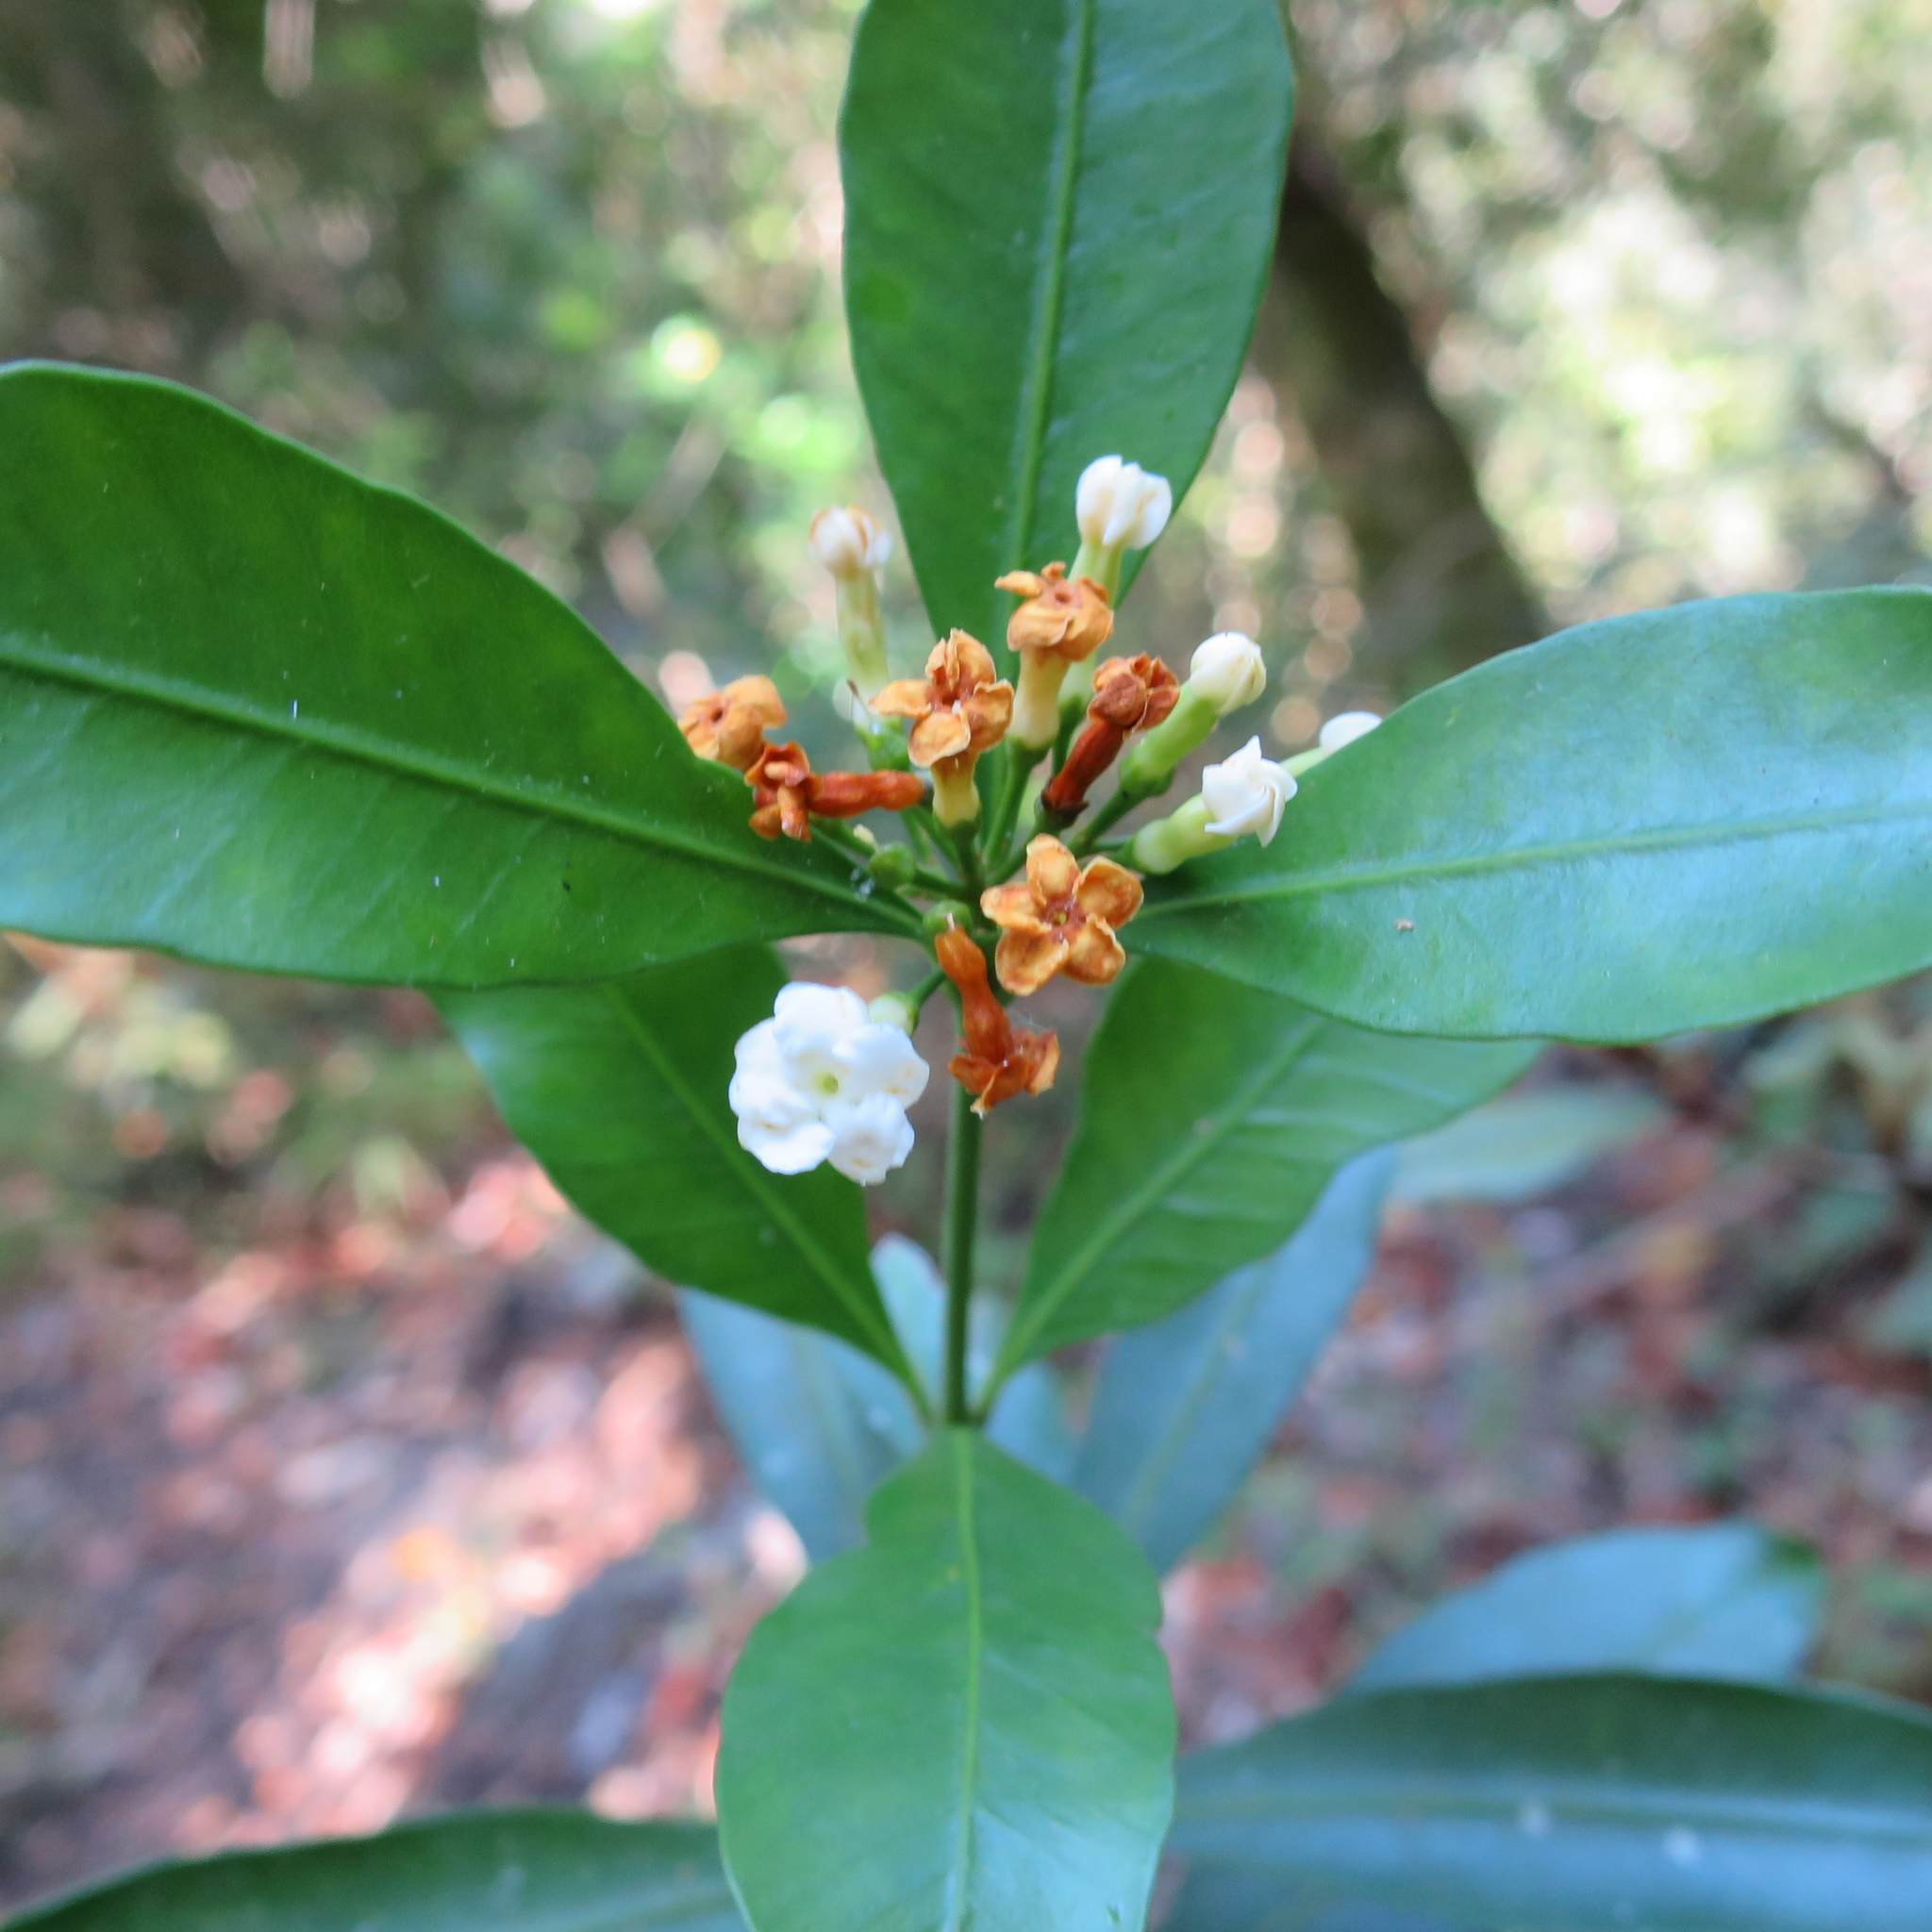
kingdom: Plantae
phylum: Tracheophyta
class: Magnoliopsida
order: Gentianales
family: Apocynaceae
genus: Gonioma
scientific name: Gonioma kamassi
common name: Kamassi
